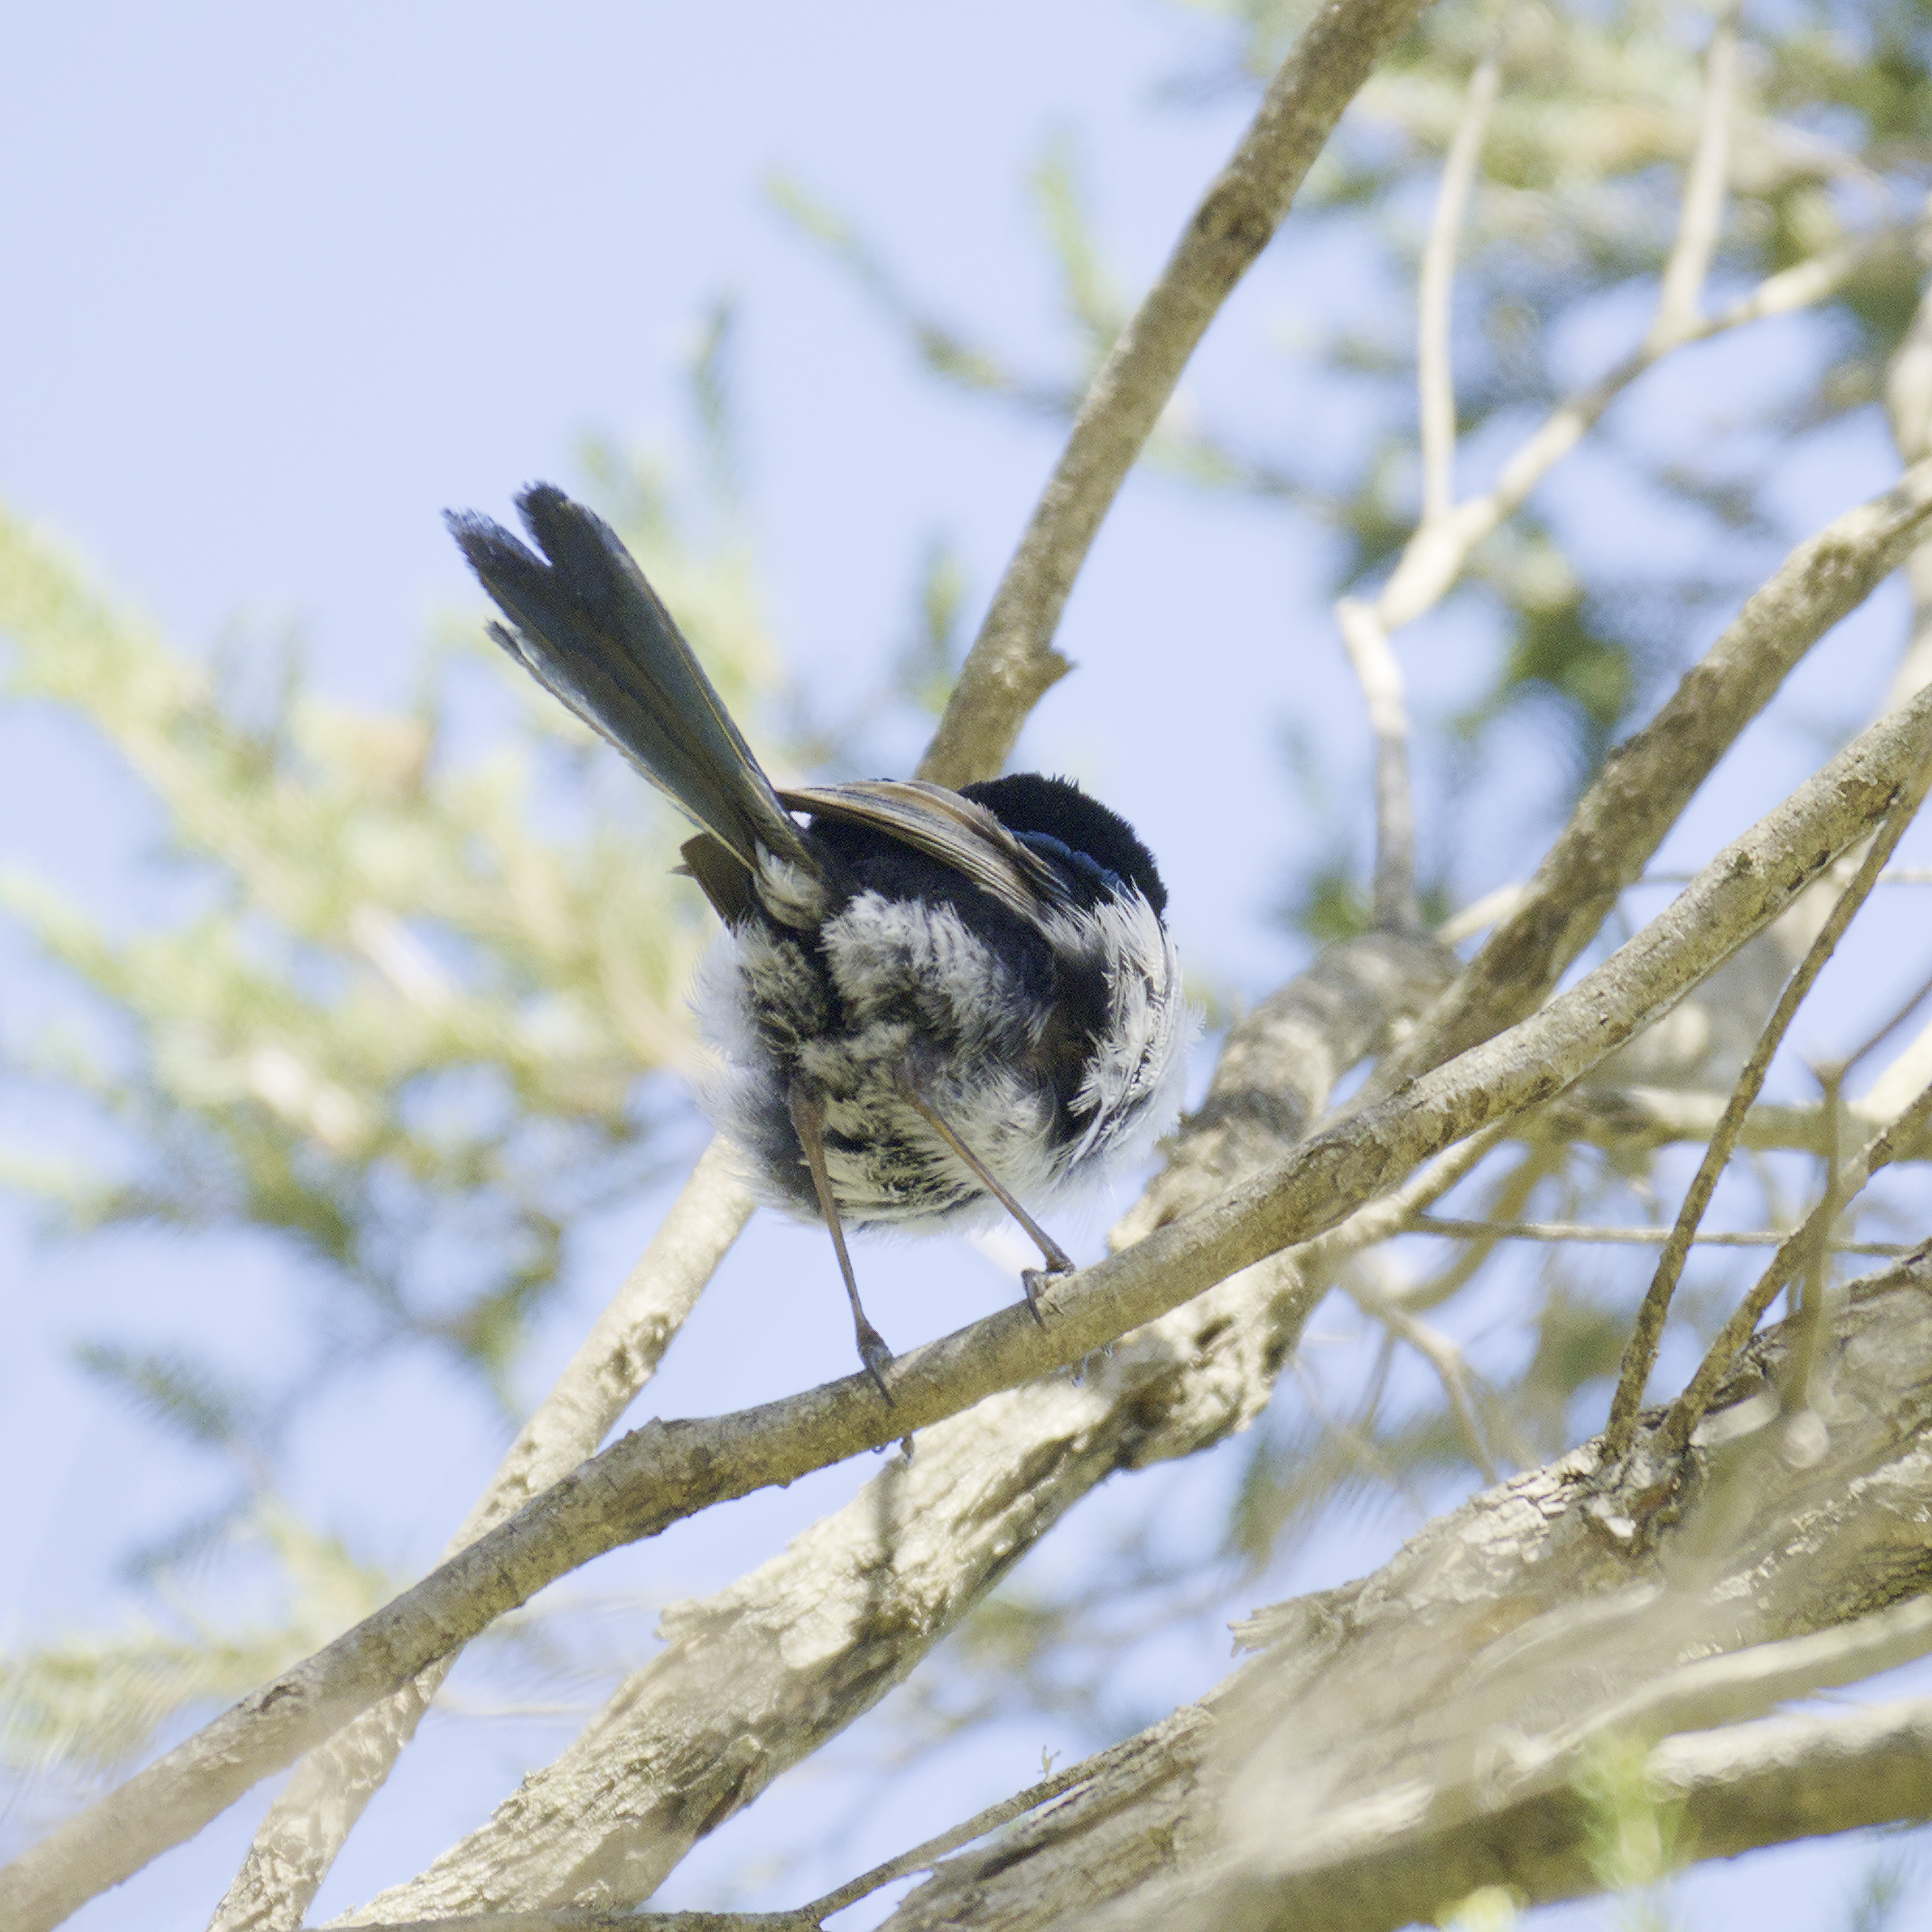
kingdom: Animalia
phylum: Chordata
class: Aves
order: Passeriformes
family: Maluridae
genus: Malurus
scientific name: Malurus cyaneus
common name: Superb fairywren
